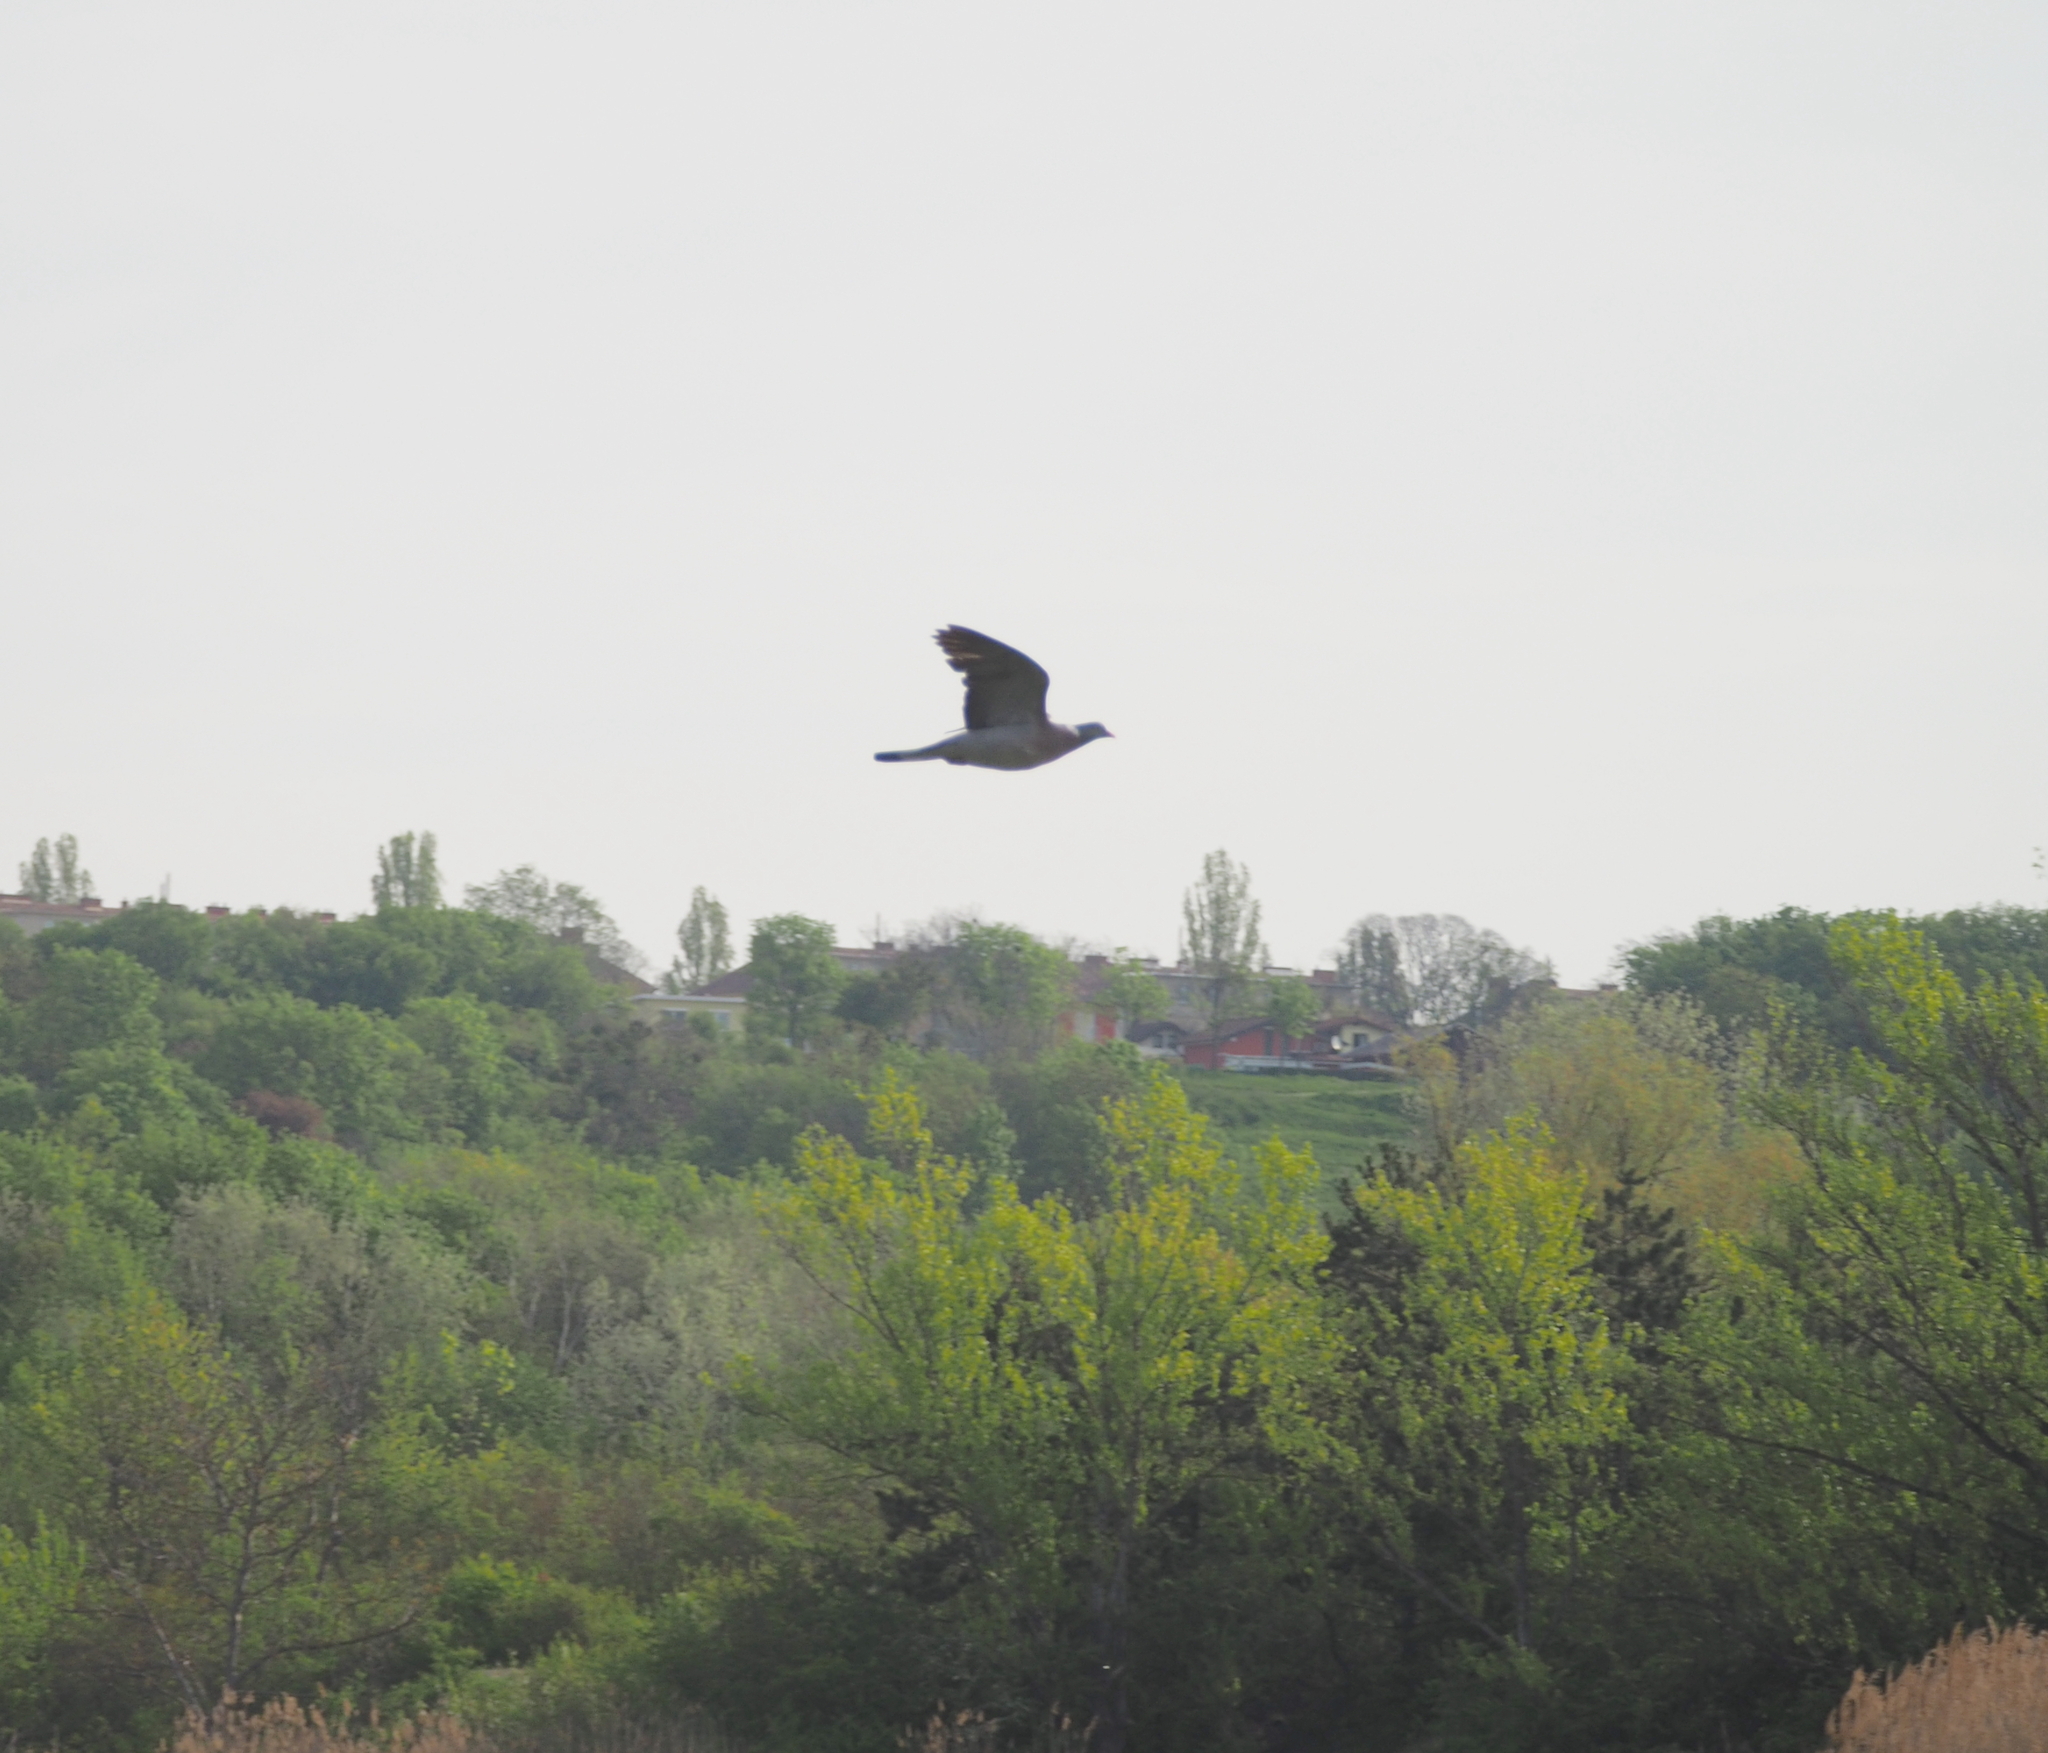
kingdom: Animalia
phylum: Chordata
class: Aves
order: Columbiformes
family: Columbidae
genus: Columba
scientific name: Columba palumbus
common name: Common wood pigeon
